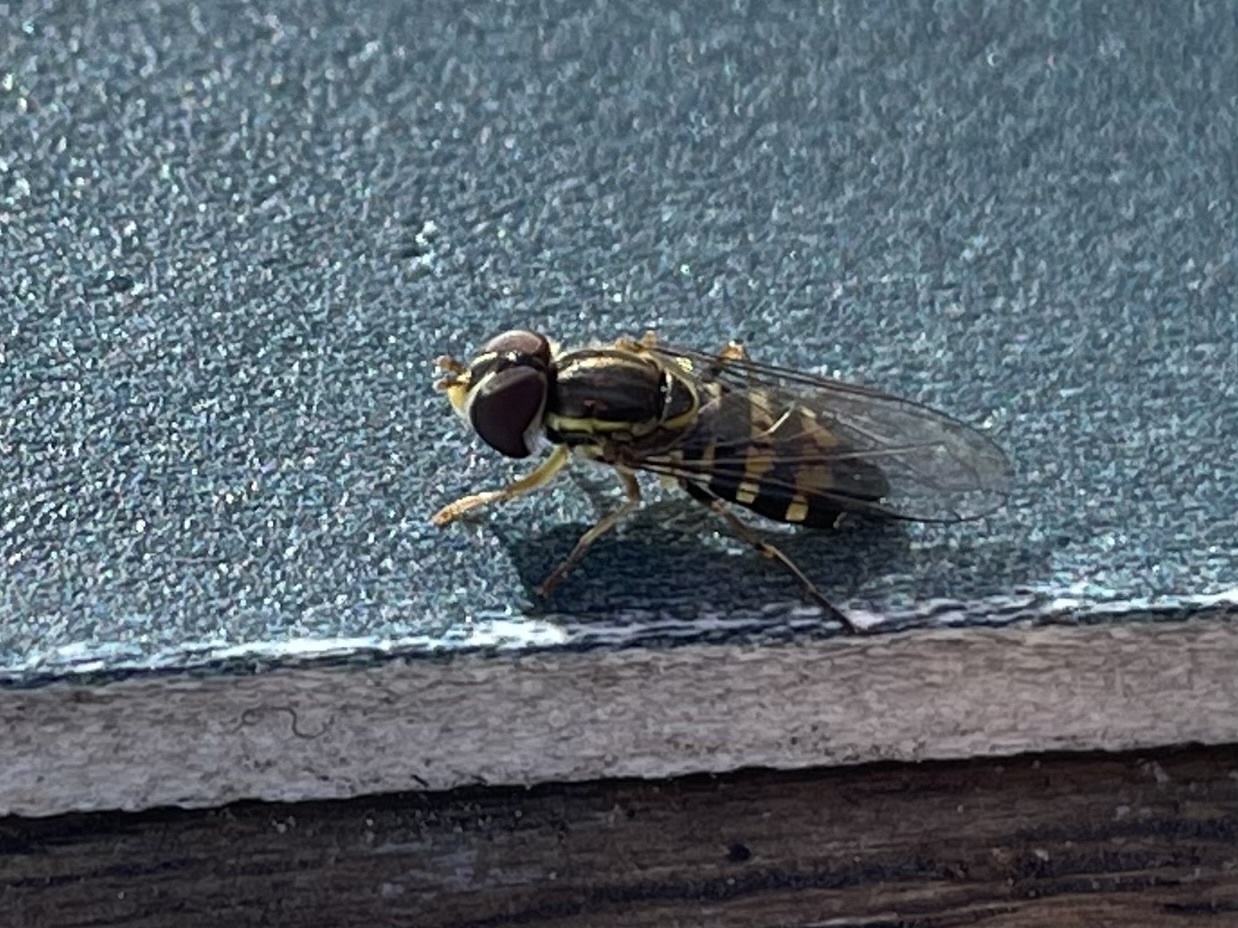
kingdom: Animalia
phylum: Arthropoda
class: Insecta
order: Diptera
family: Syrphidae
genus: Toxomerus
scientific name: Toxomerus occidentalis
